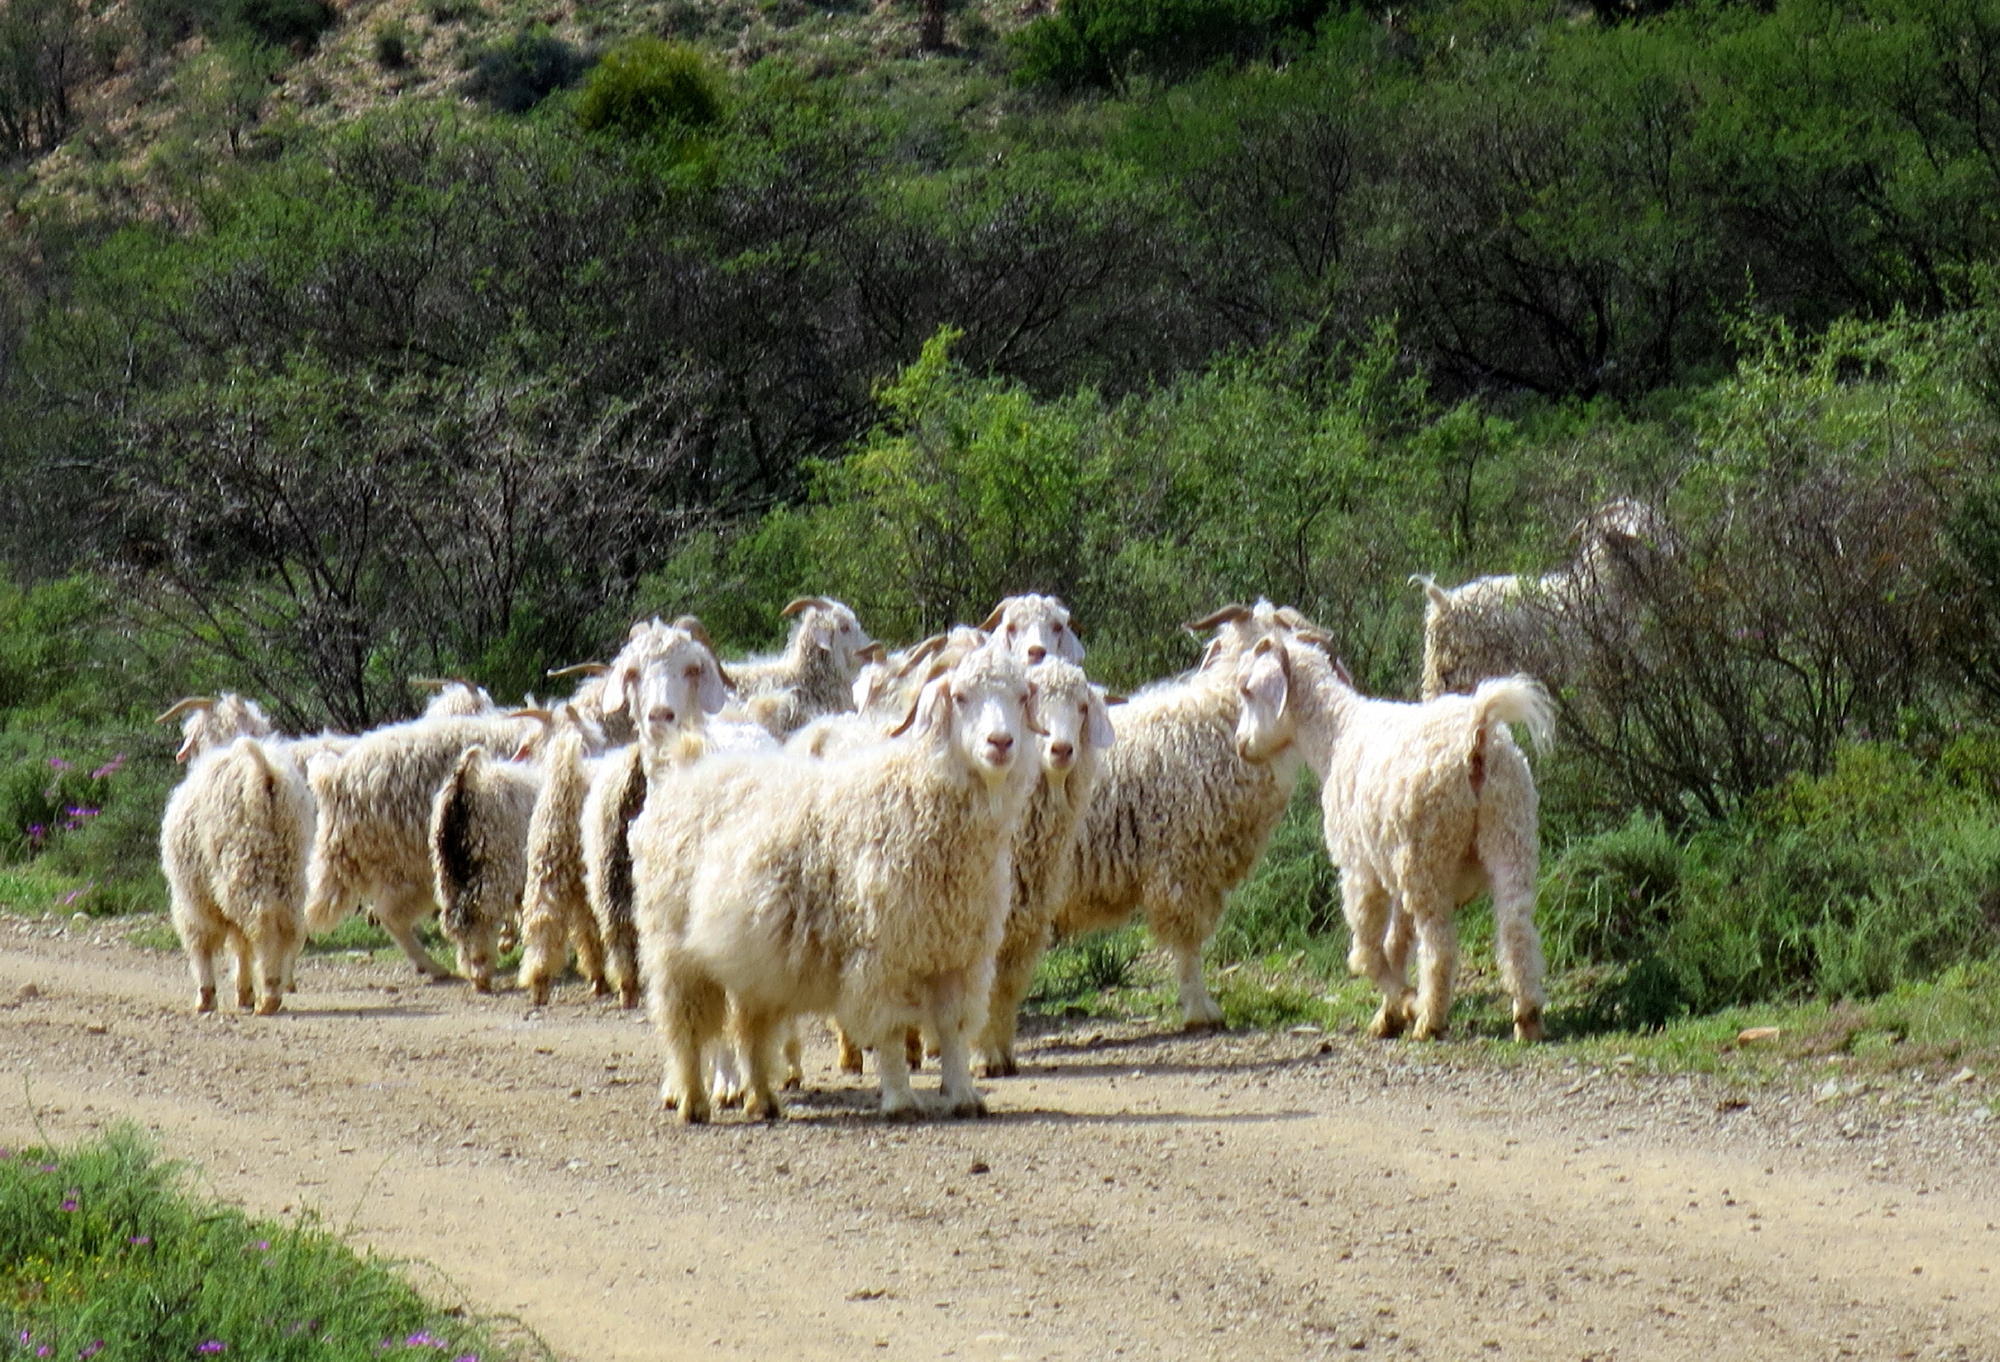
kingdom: Animalia
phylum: Chordata
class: Mammalia
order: Artiodactyla
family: Bovidae
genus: Capra
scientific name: Capra hircus
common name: Domestic goat
